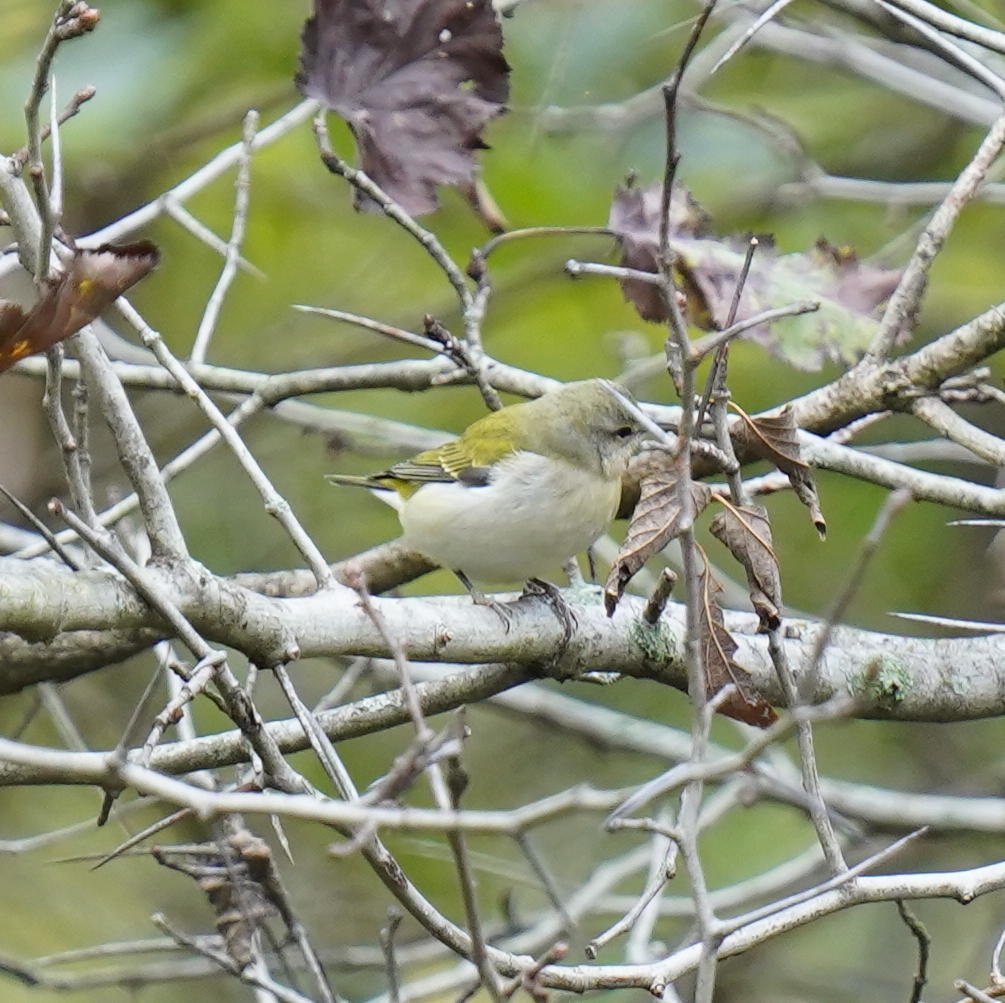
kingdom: Animalia
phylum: Chordata
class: Aves
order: Passeriformes
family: Parulidae
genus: Leiothlypis
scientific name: Leiothlypis peregrina
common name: Tennessee warbler
